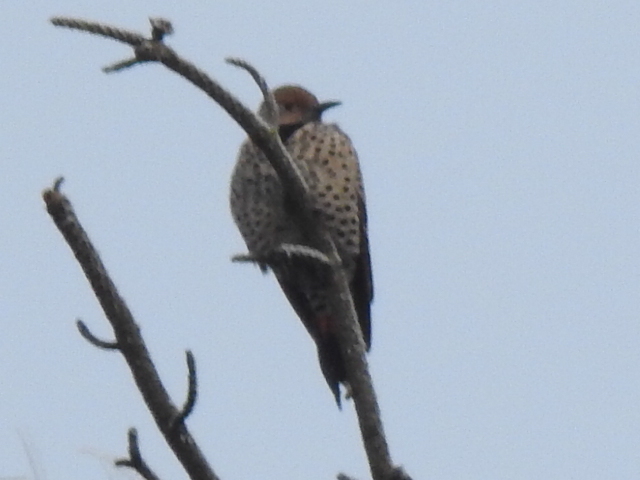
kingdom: Animalia
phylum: Chordata
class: Aves
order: Piciformes
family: Picidae
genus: Colaptes
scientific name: Colaptes auratus
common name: Northern flicker
